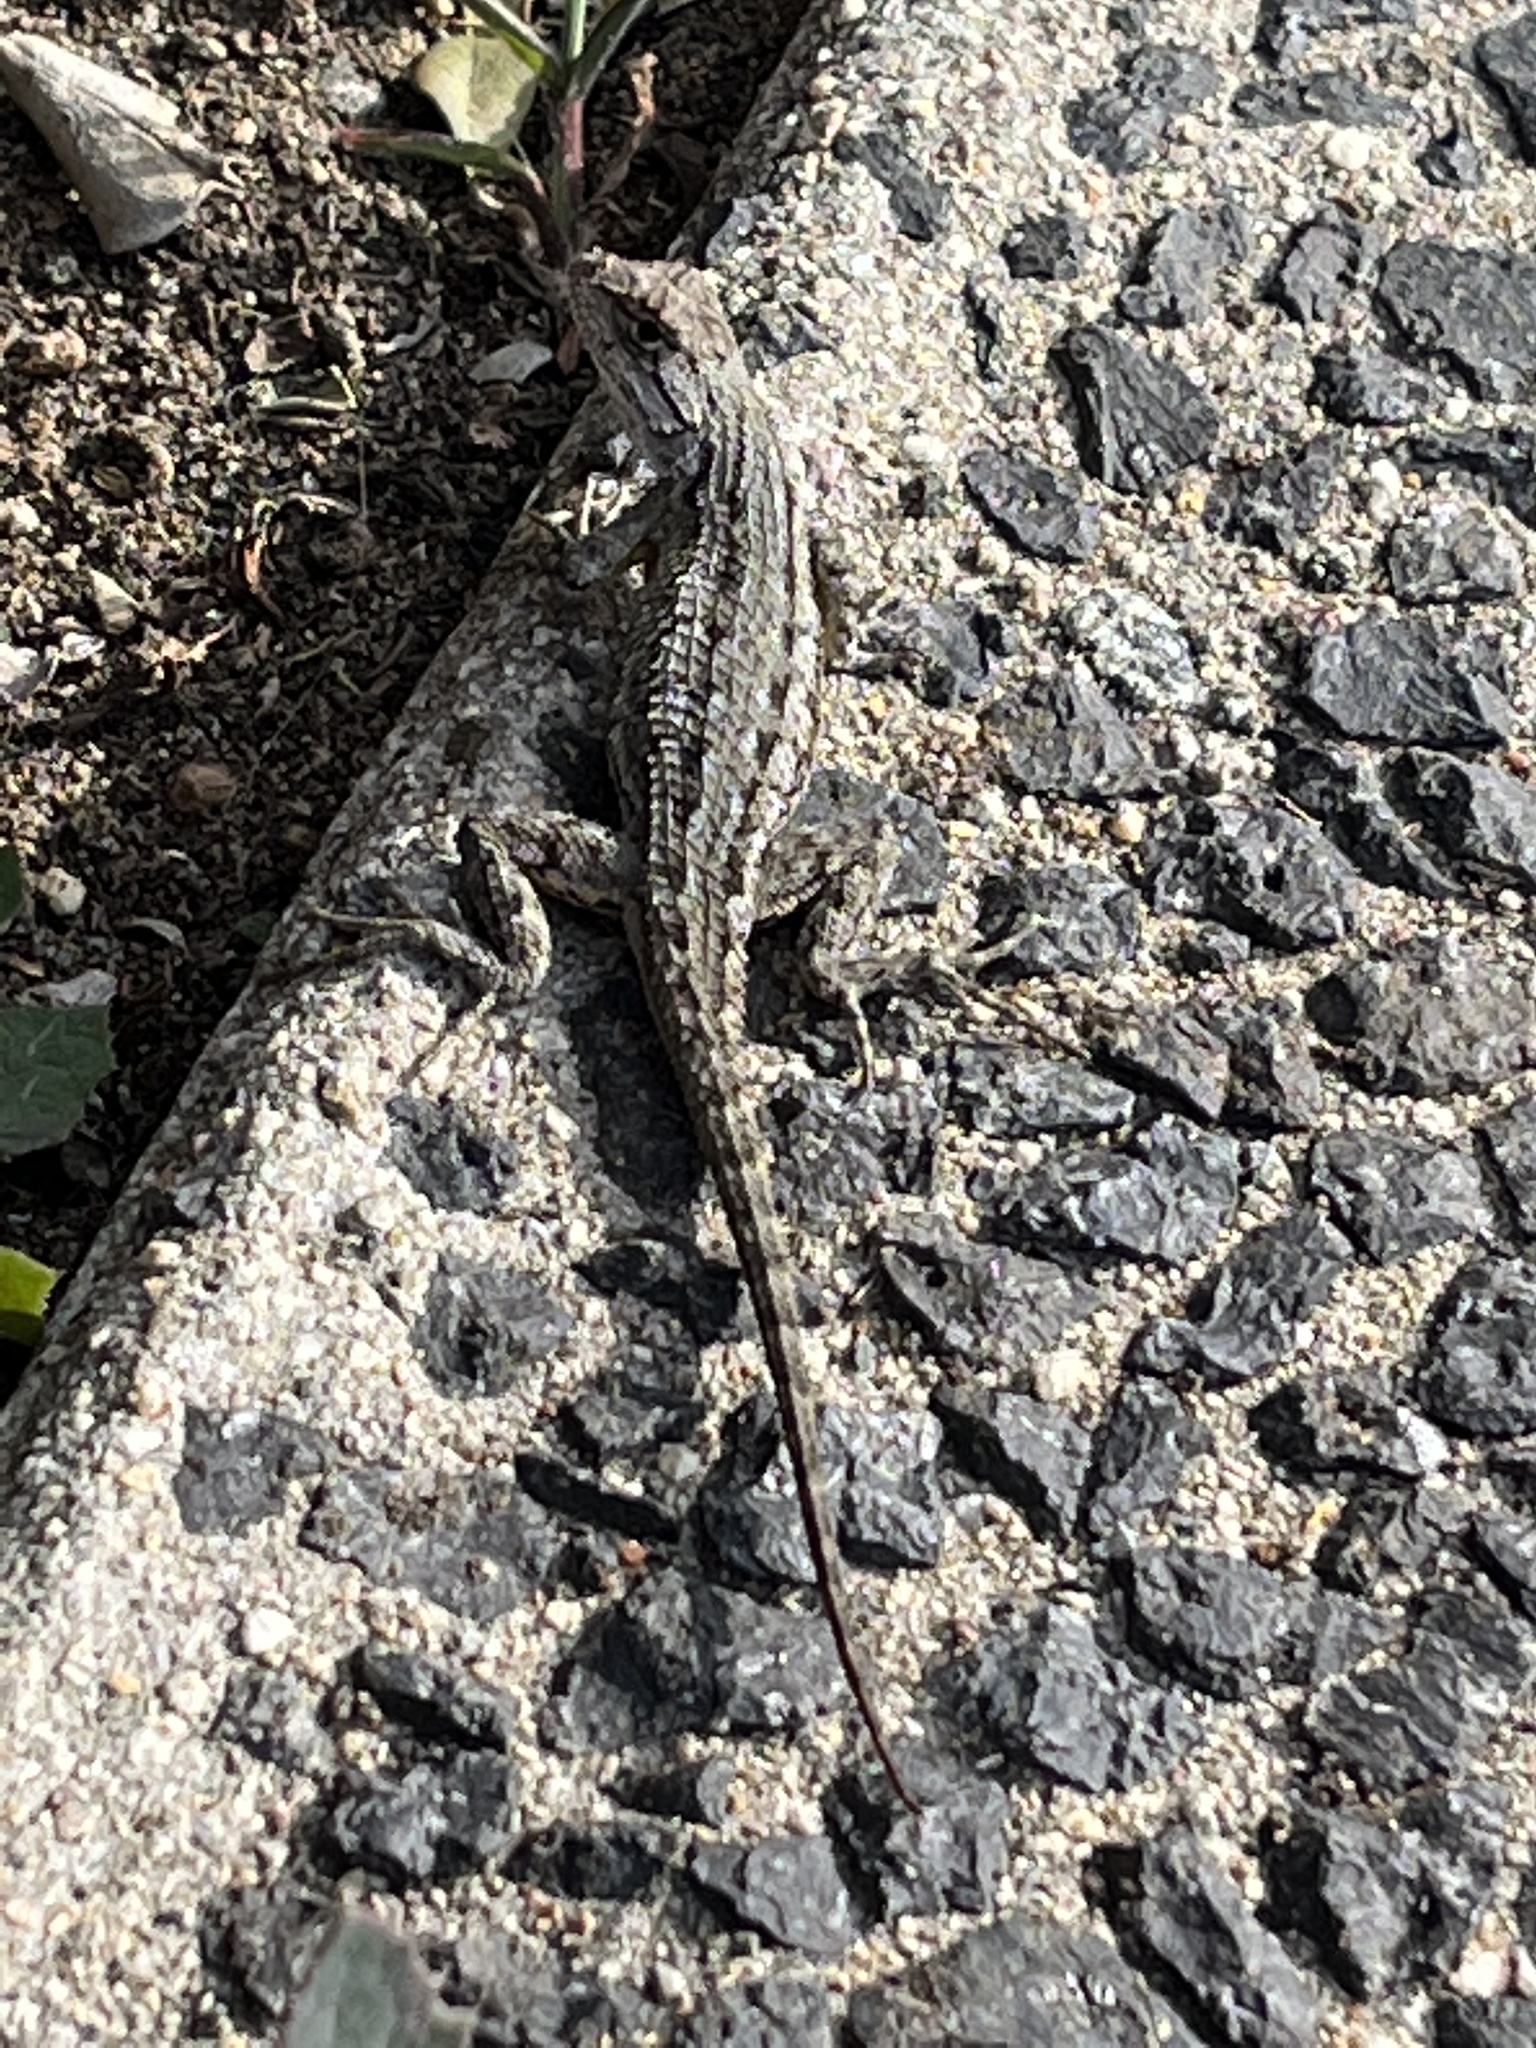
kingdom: Animalia
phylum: Chordata
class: Squamata
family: Phrynosomatidae
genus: Sceloporus
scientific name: Sceloporus occidentalis
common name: Western fence lizard
